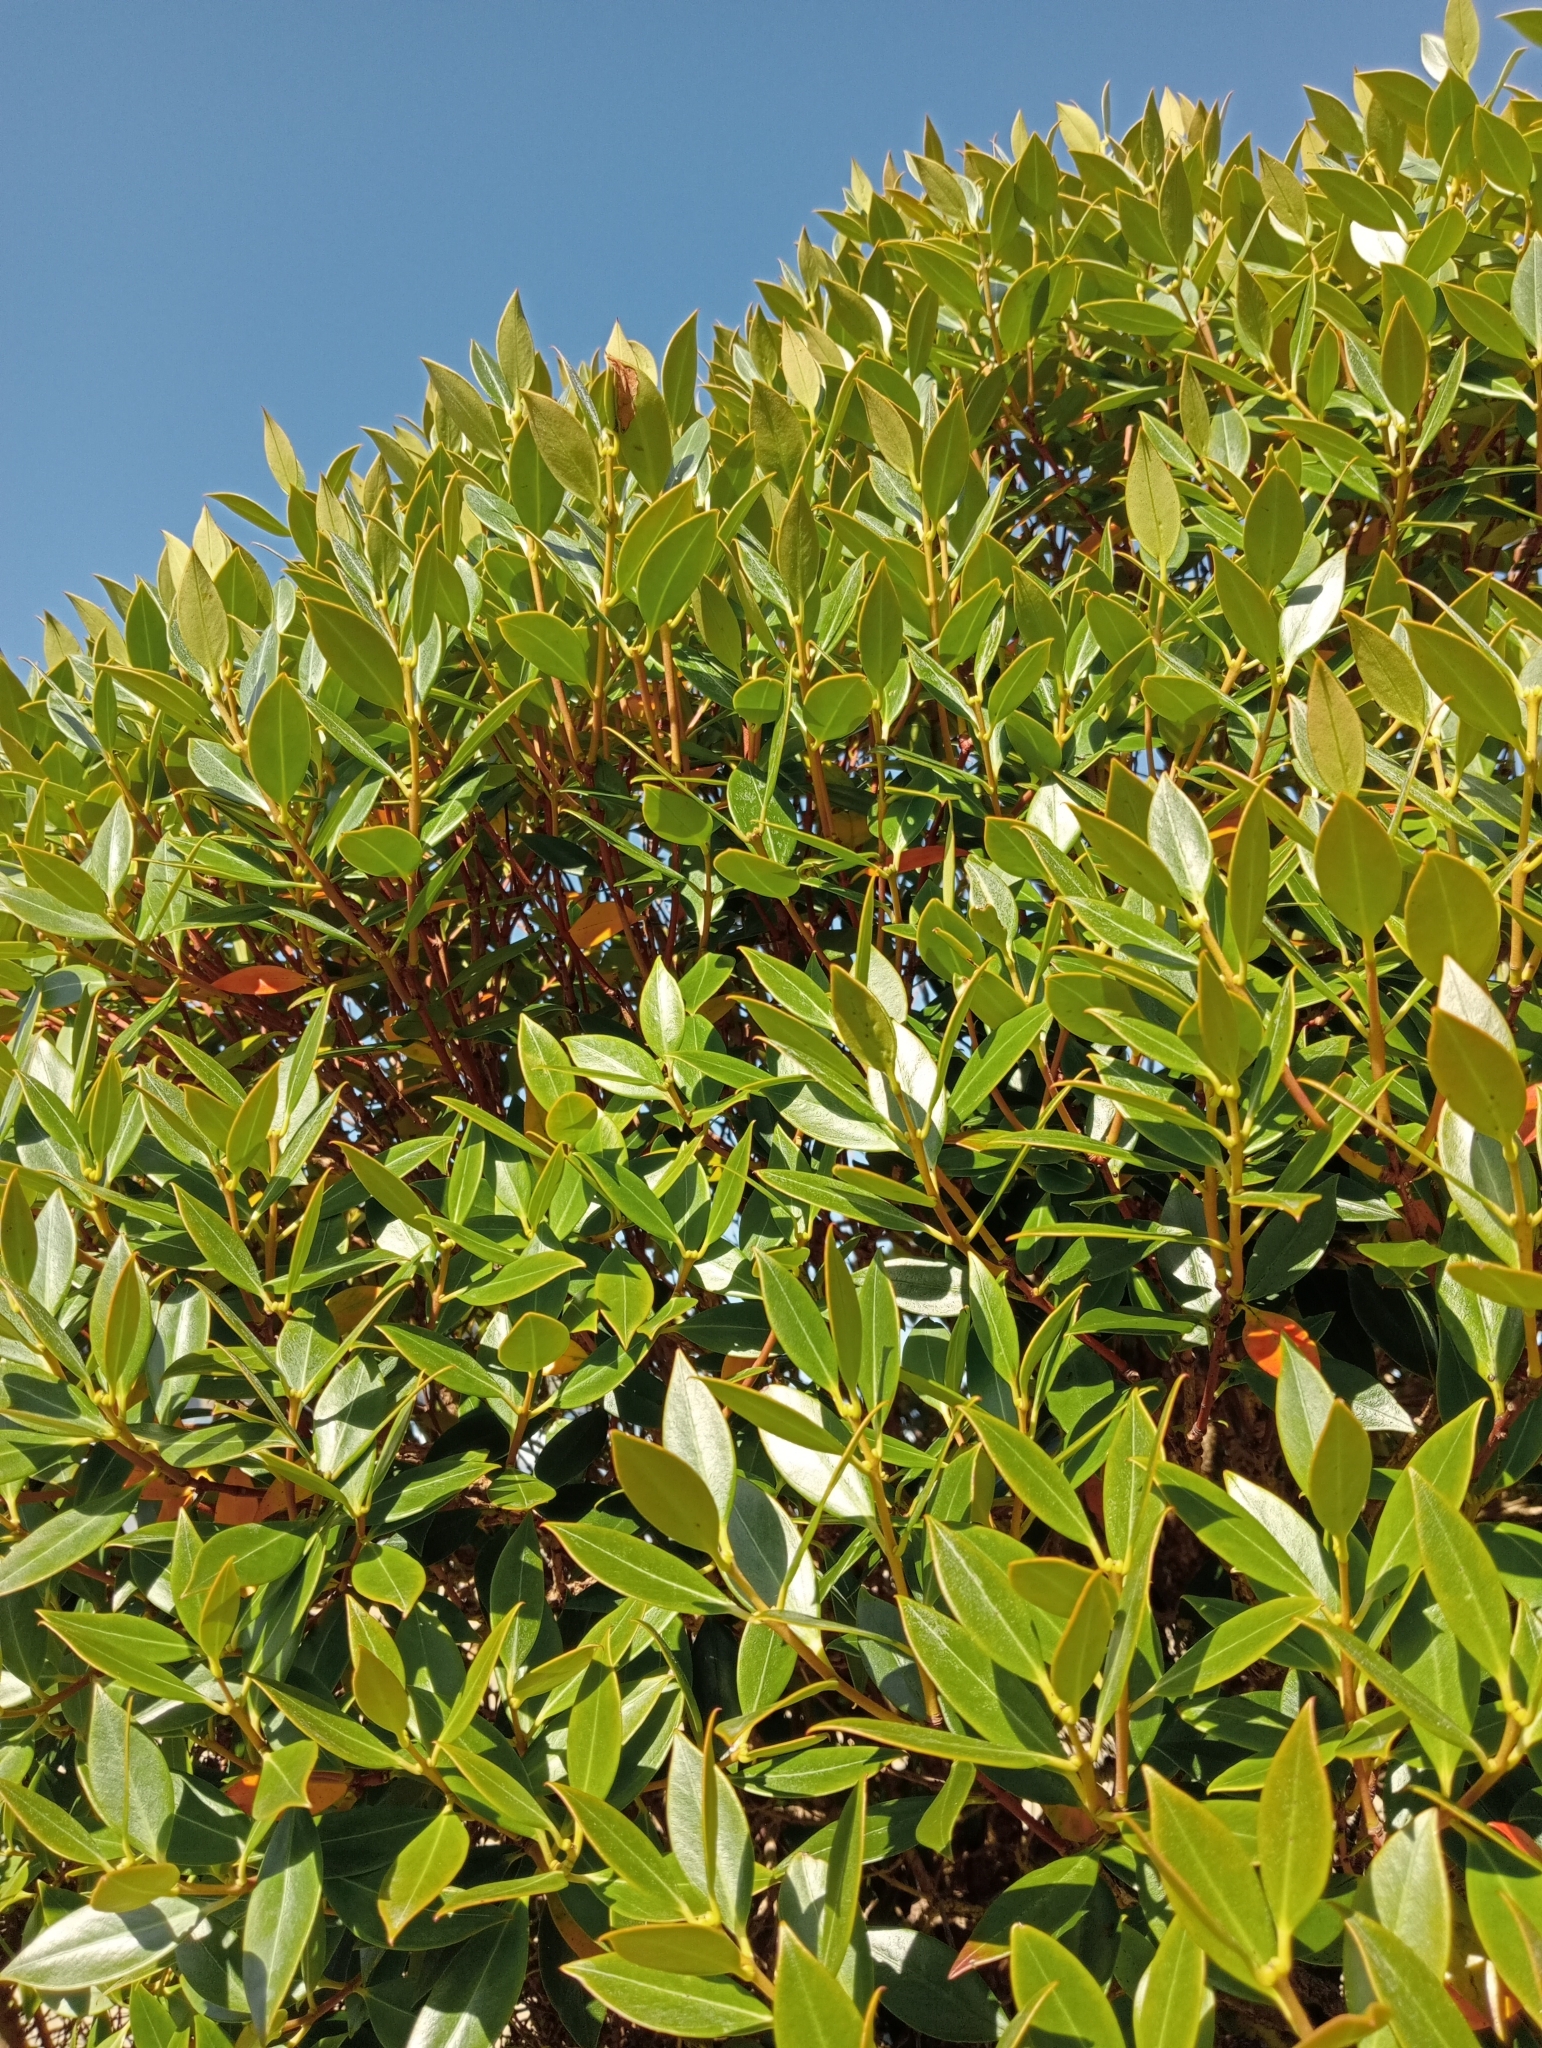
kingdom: Plantae
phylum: Tracheophyta
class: Magnoliopsida
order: Myrtales
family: Myrtaceae
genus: Metrosideros
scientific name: Metrosideros umbellata
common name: Southern rata
